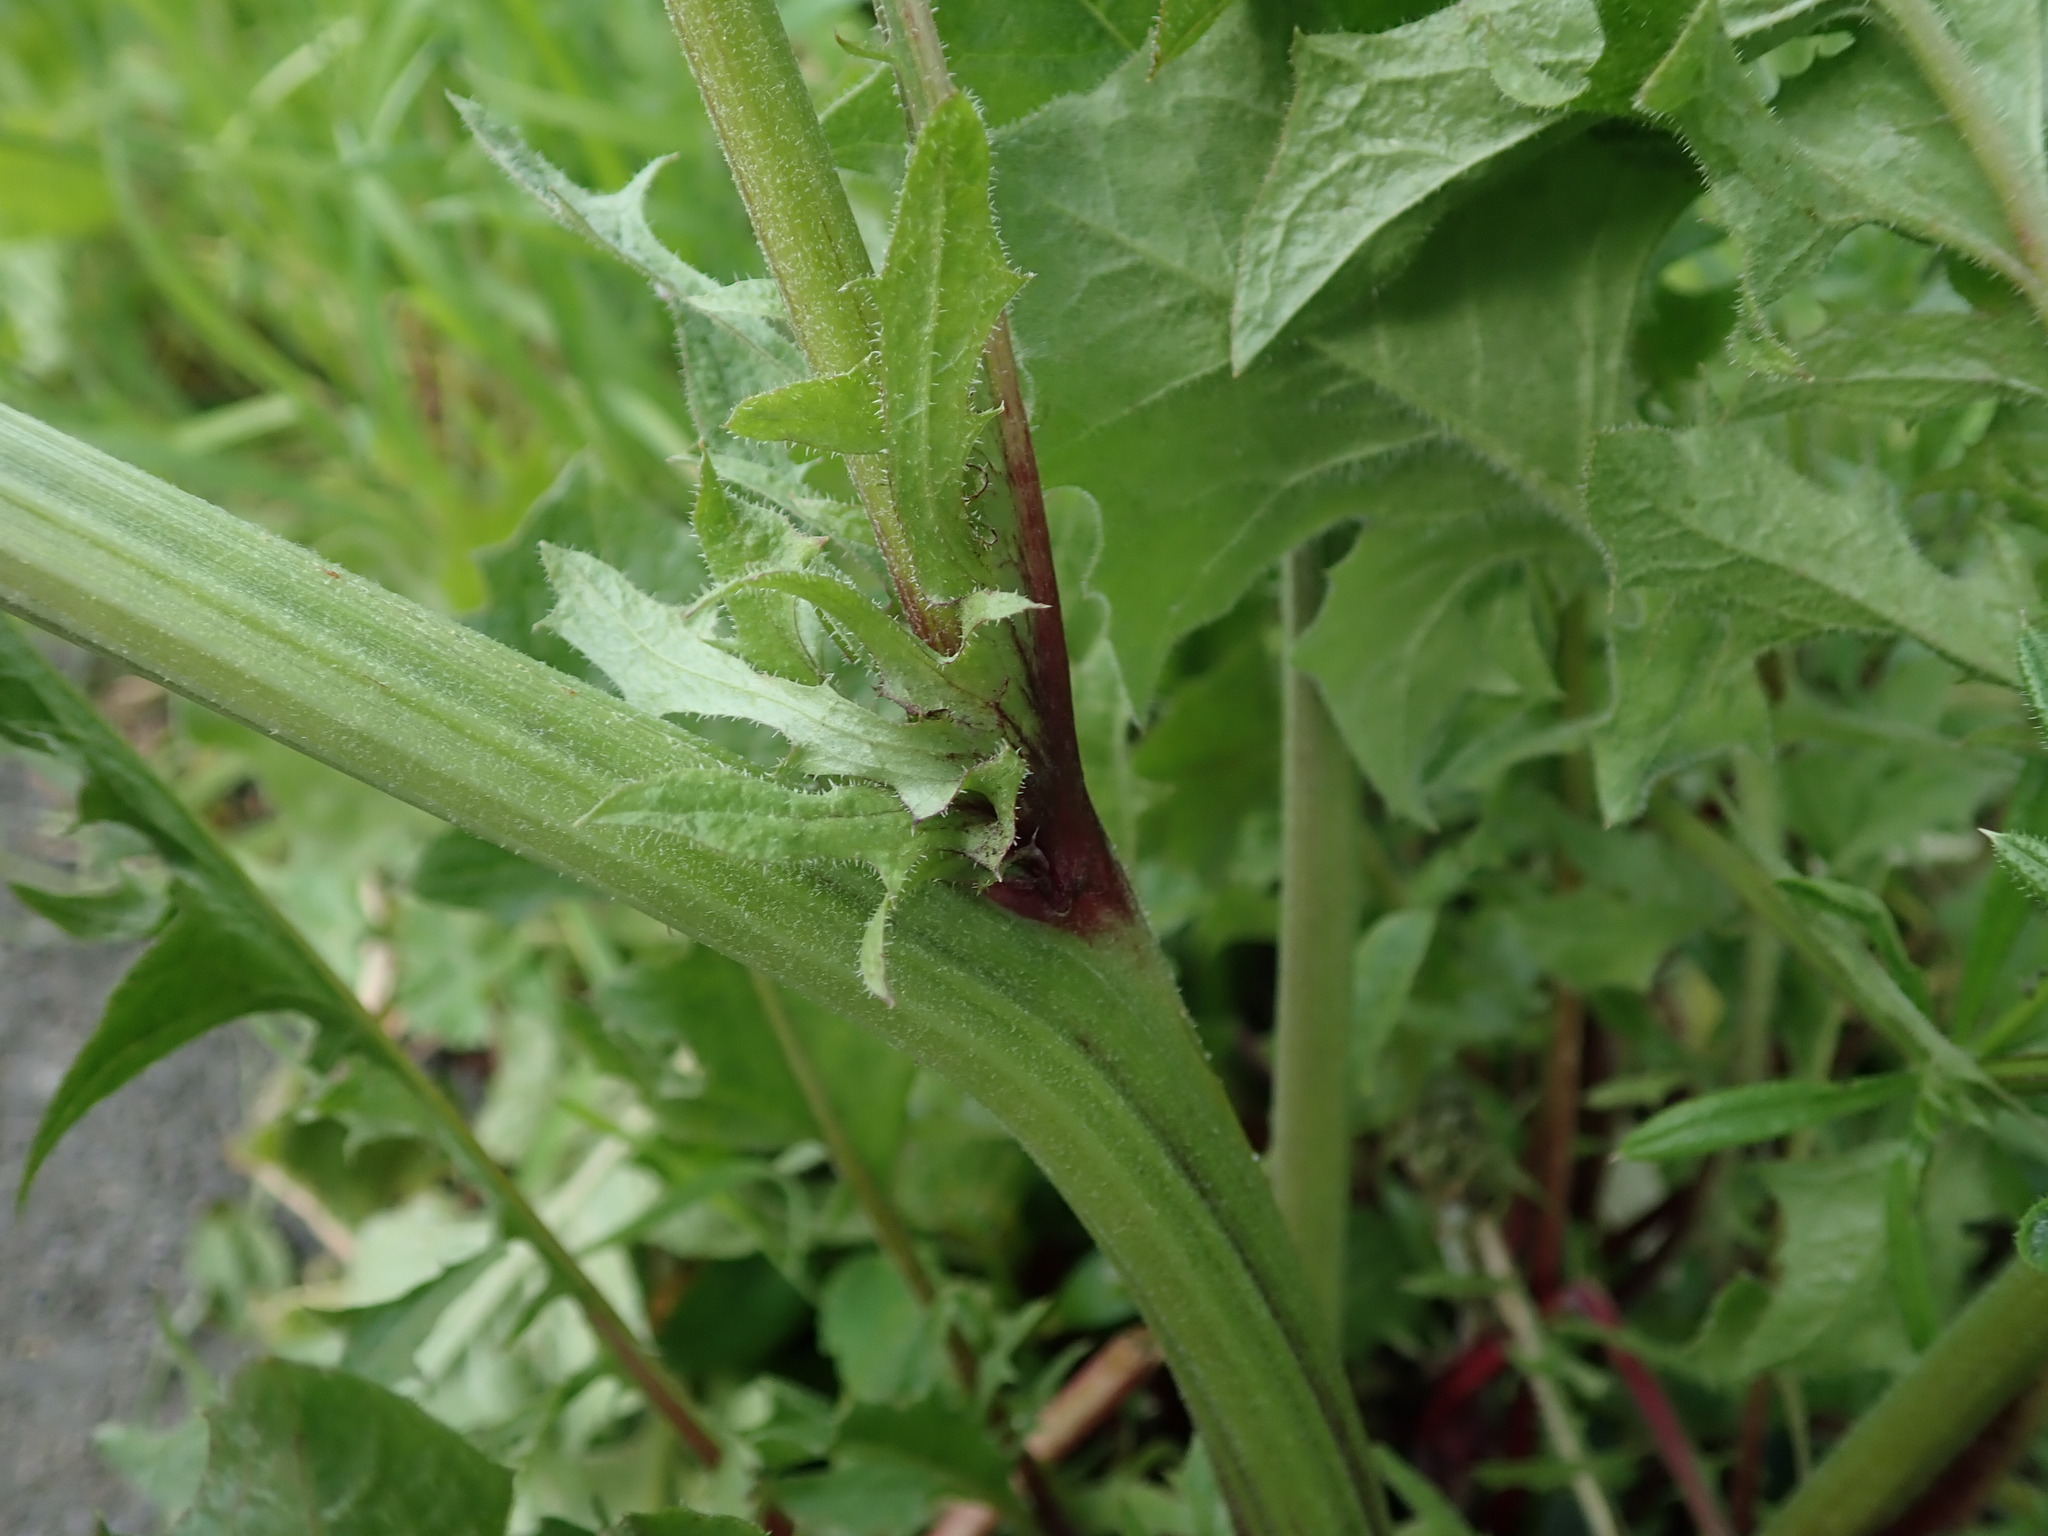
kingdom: Plantae
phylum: Tracheophyta
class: Magnoliopsida
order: Asterales
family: Asteraceae
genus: Crepis
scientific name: Crepis vesicaria
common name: Beaked hawksbeard
